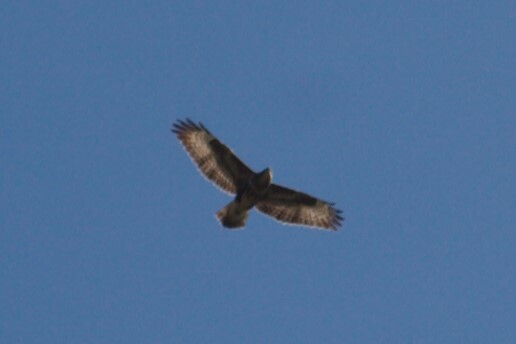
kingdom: Animalia
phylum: Chordata
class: Aves
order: Accipitriformes
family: Accipitridae
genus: Buteo
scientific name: Buteo buteo
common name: Common buzzard
